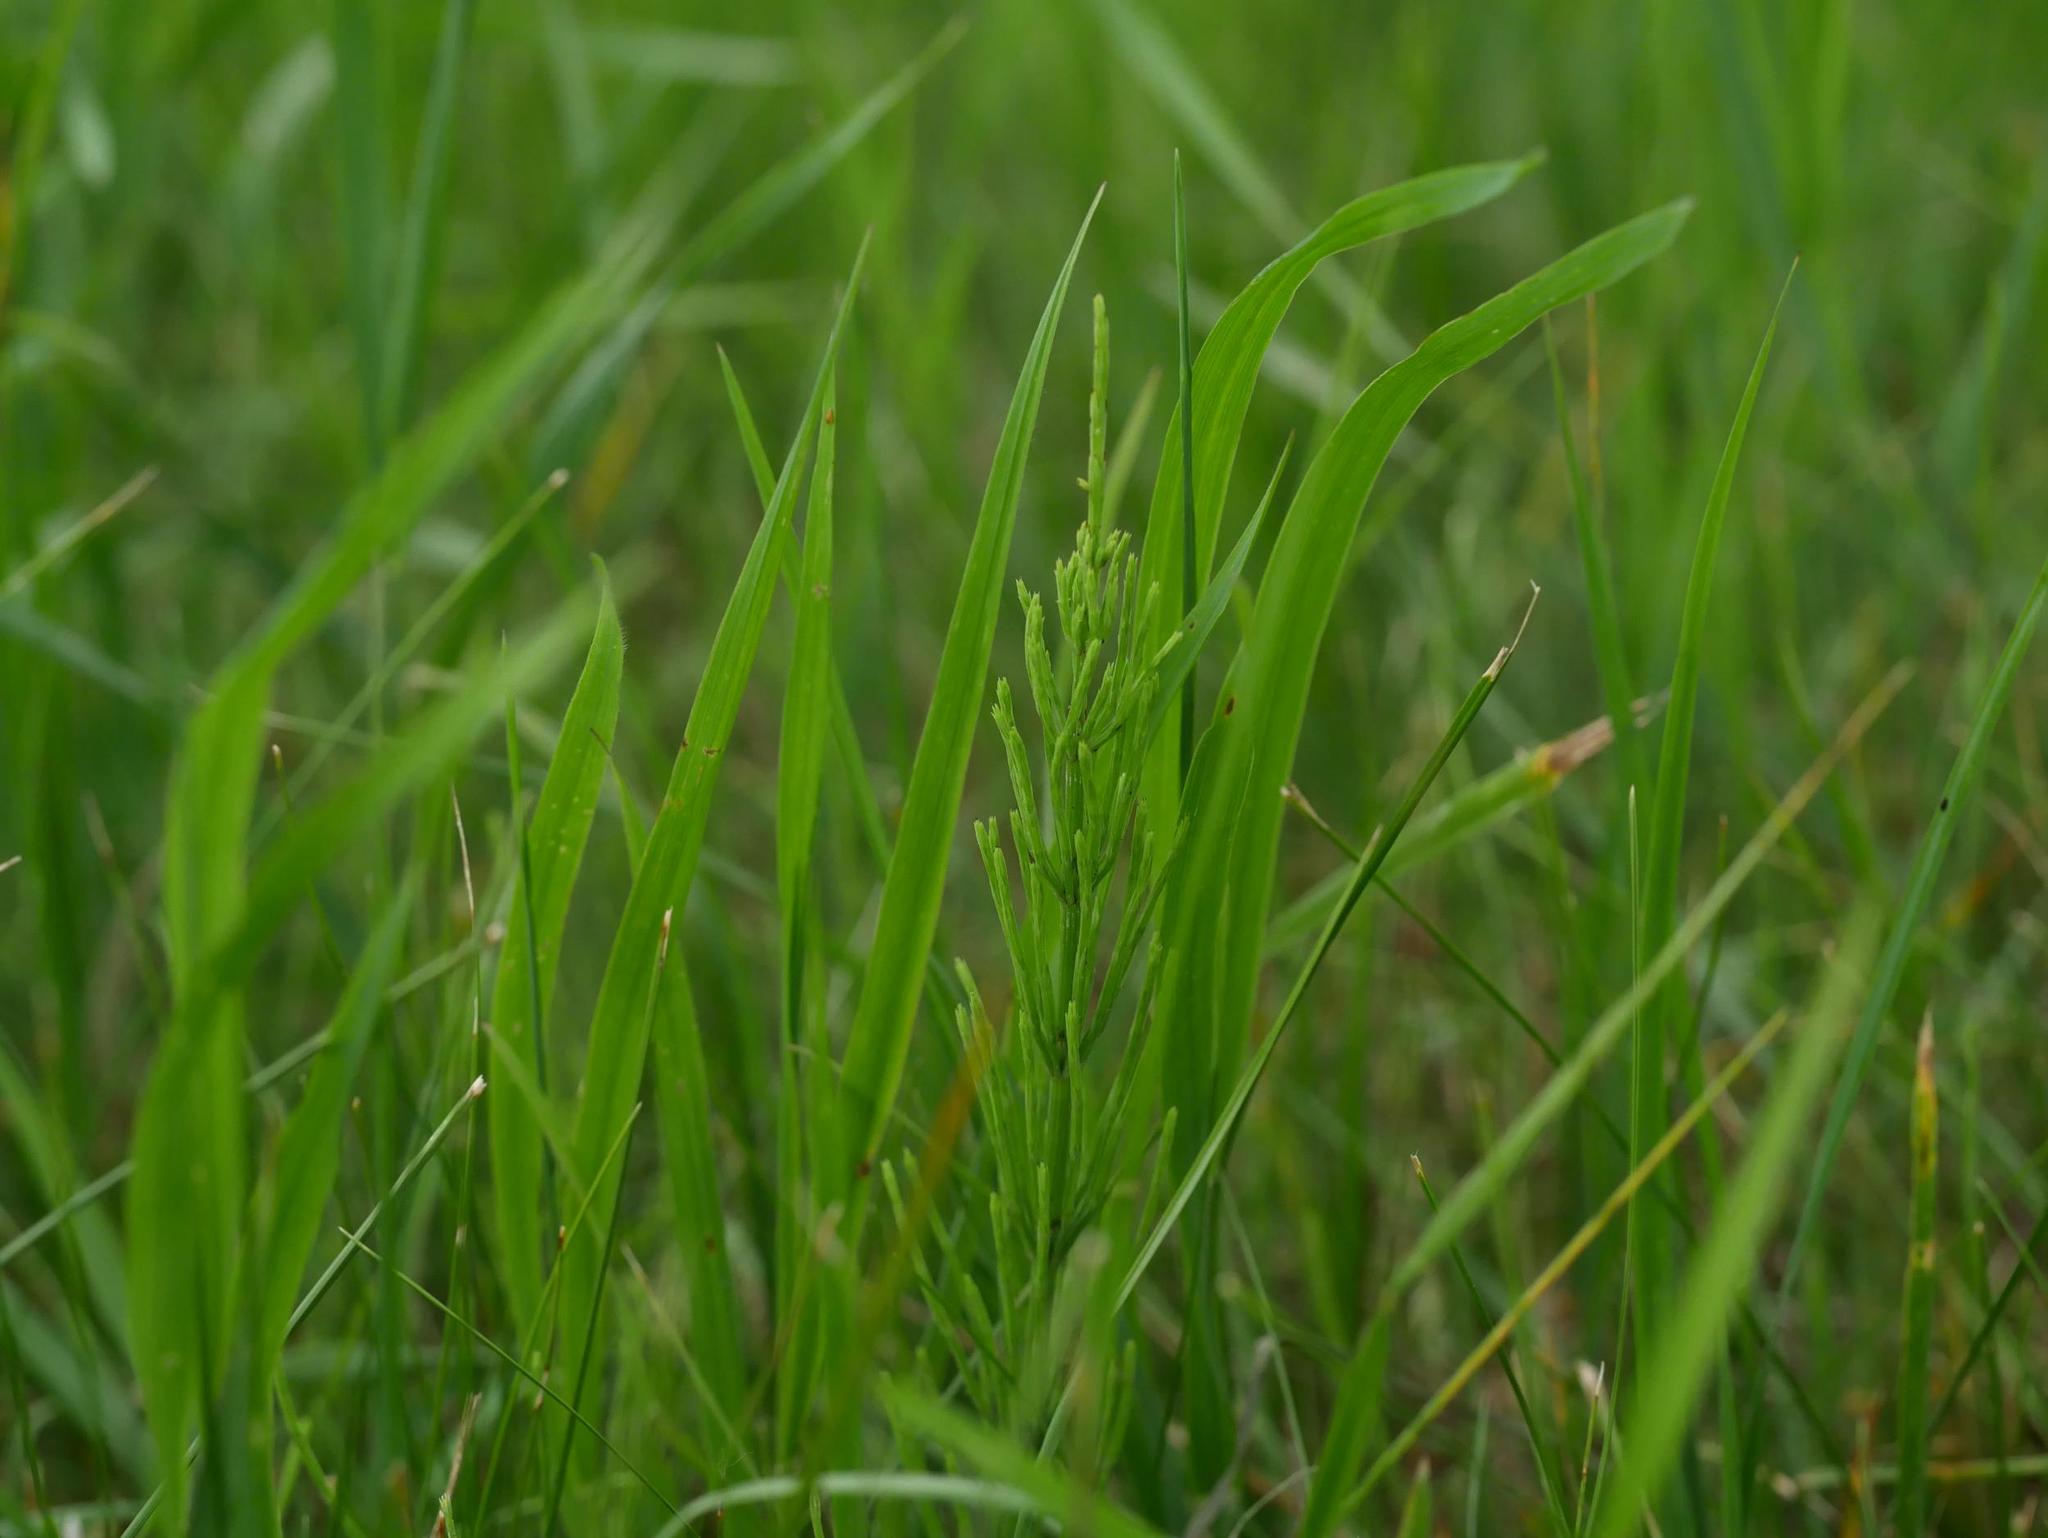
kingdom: Plantae
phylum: Tracheophyta
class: Polypodiopsida
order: Equisetales
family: Equisetaceae
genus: Equisetum
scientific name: Equisetum arvense
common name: Field horsetail
